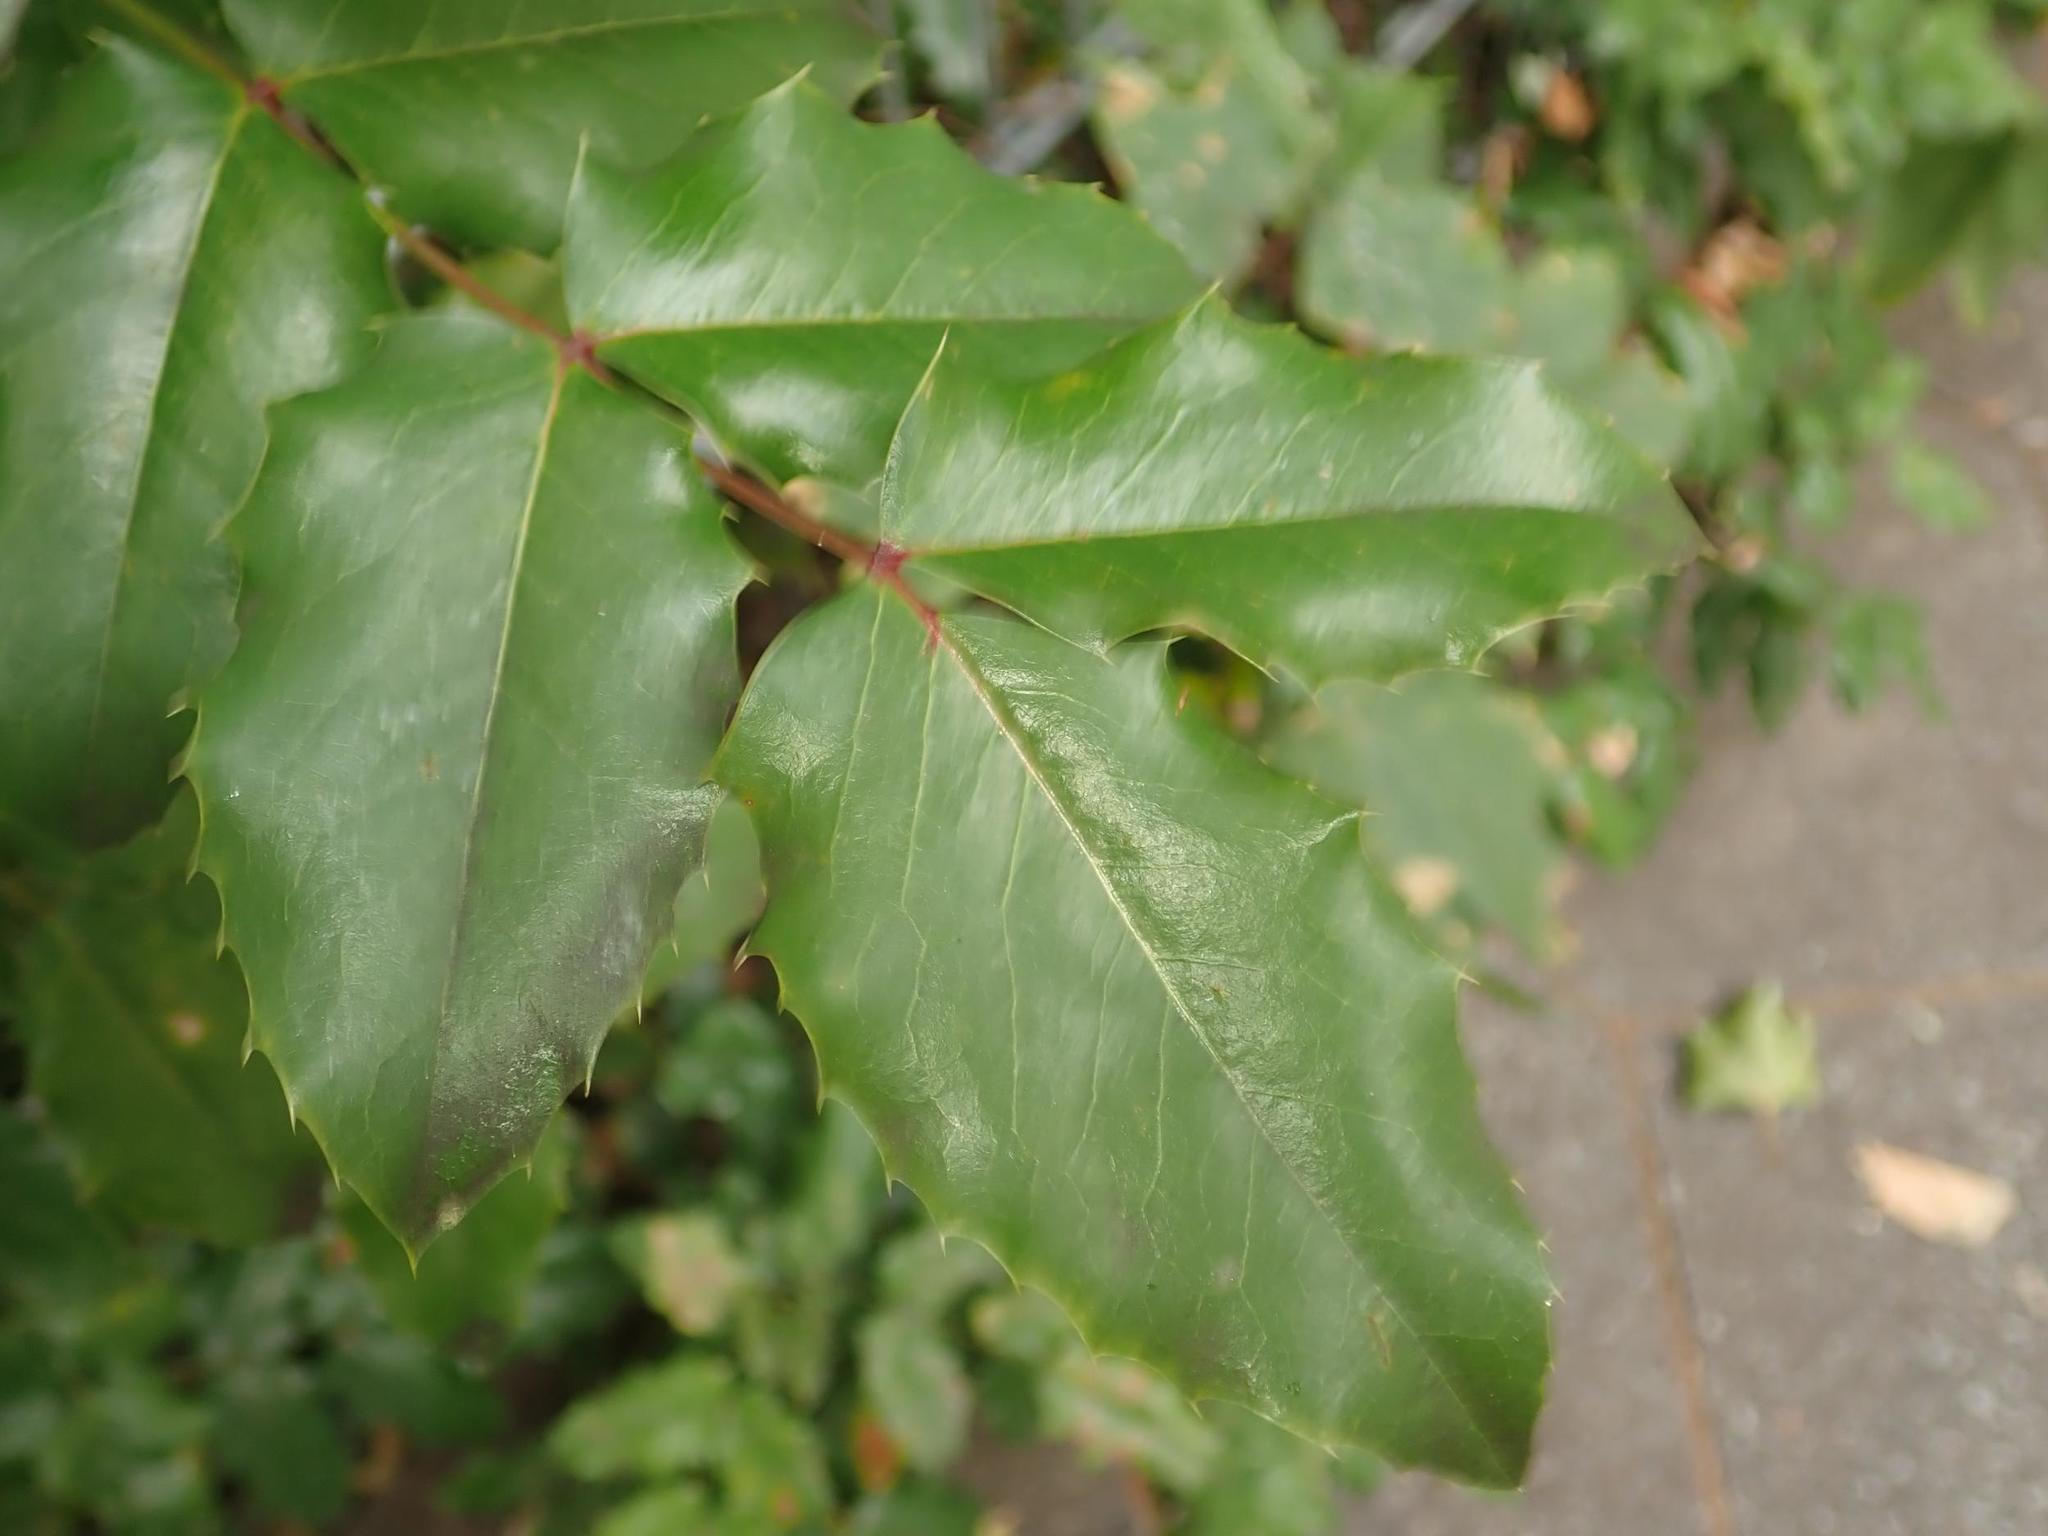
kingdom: Plantae
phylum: Tracheophyta
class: Magnoliopsida
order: Ranunculales
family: Berberidaceae
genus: Mahonia
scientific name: Mahonia aquifolium
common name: Oregon-grape
